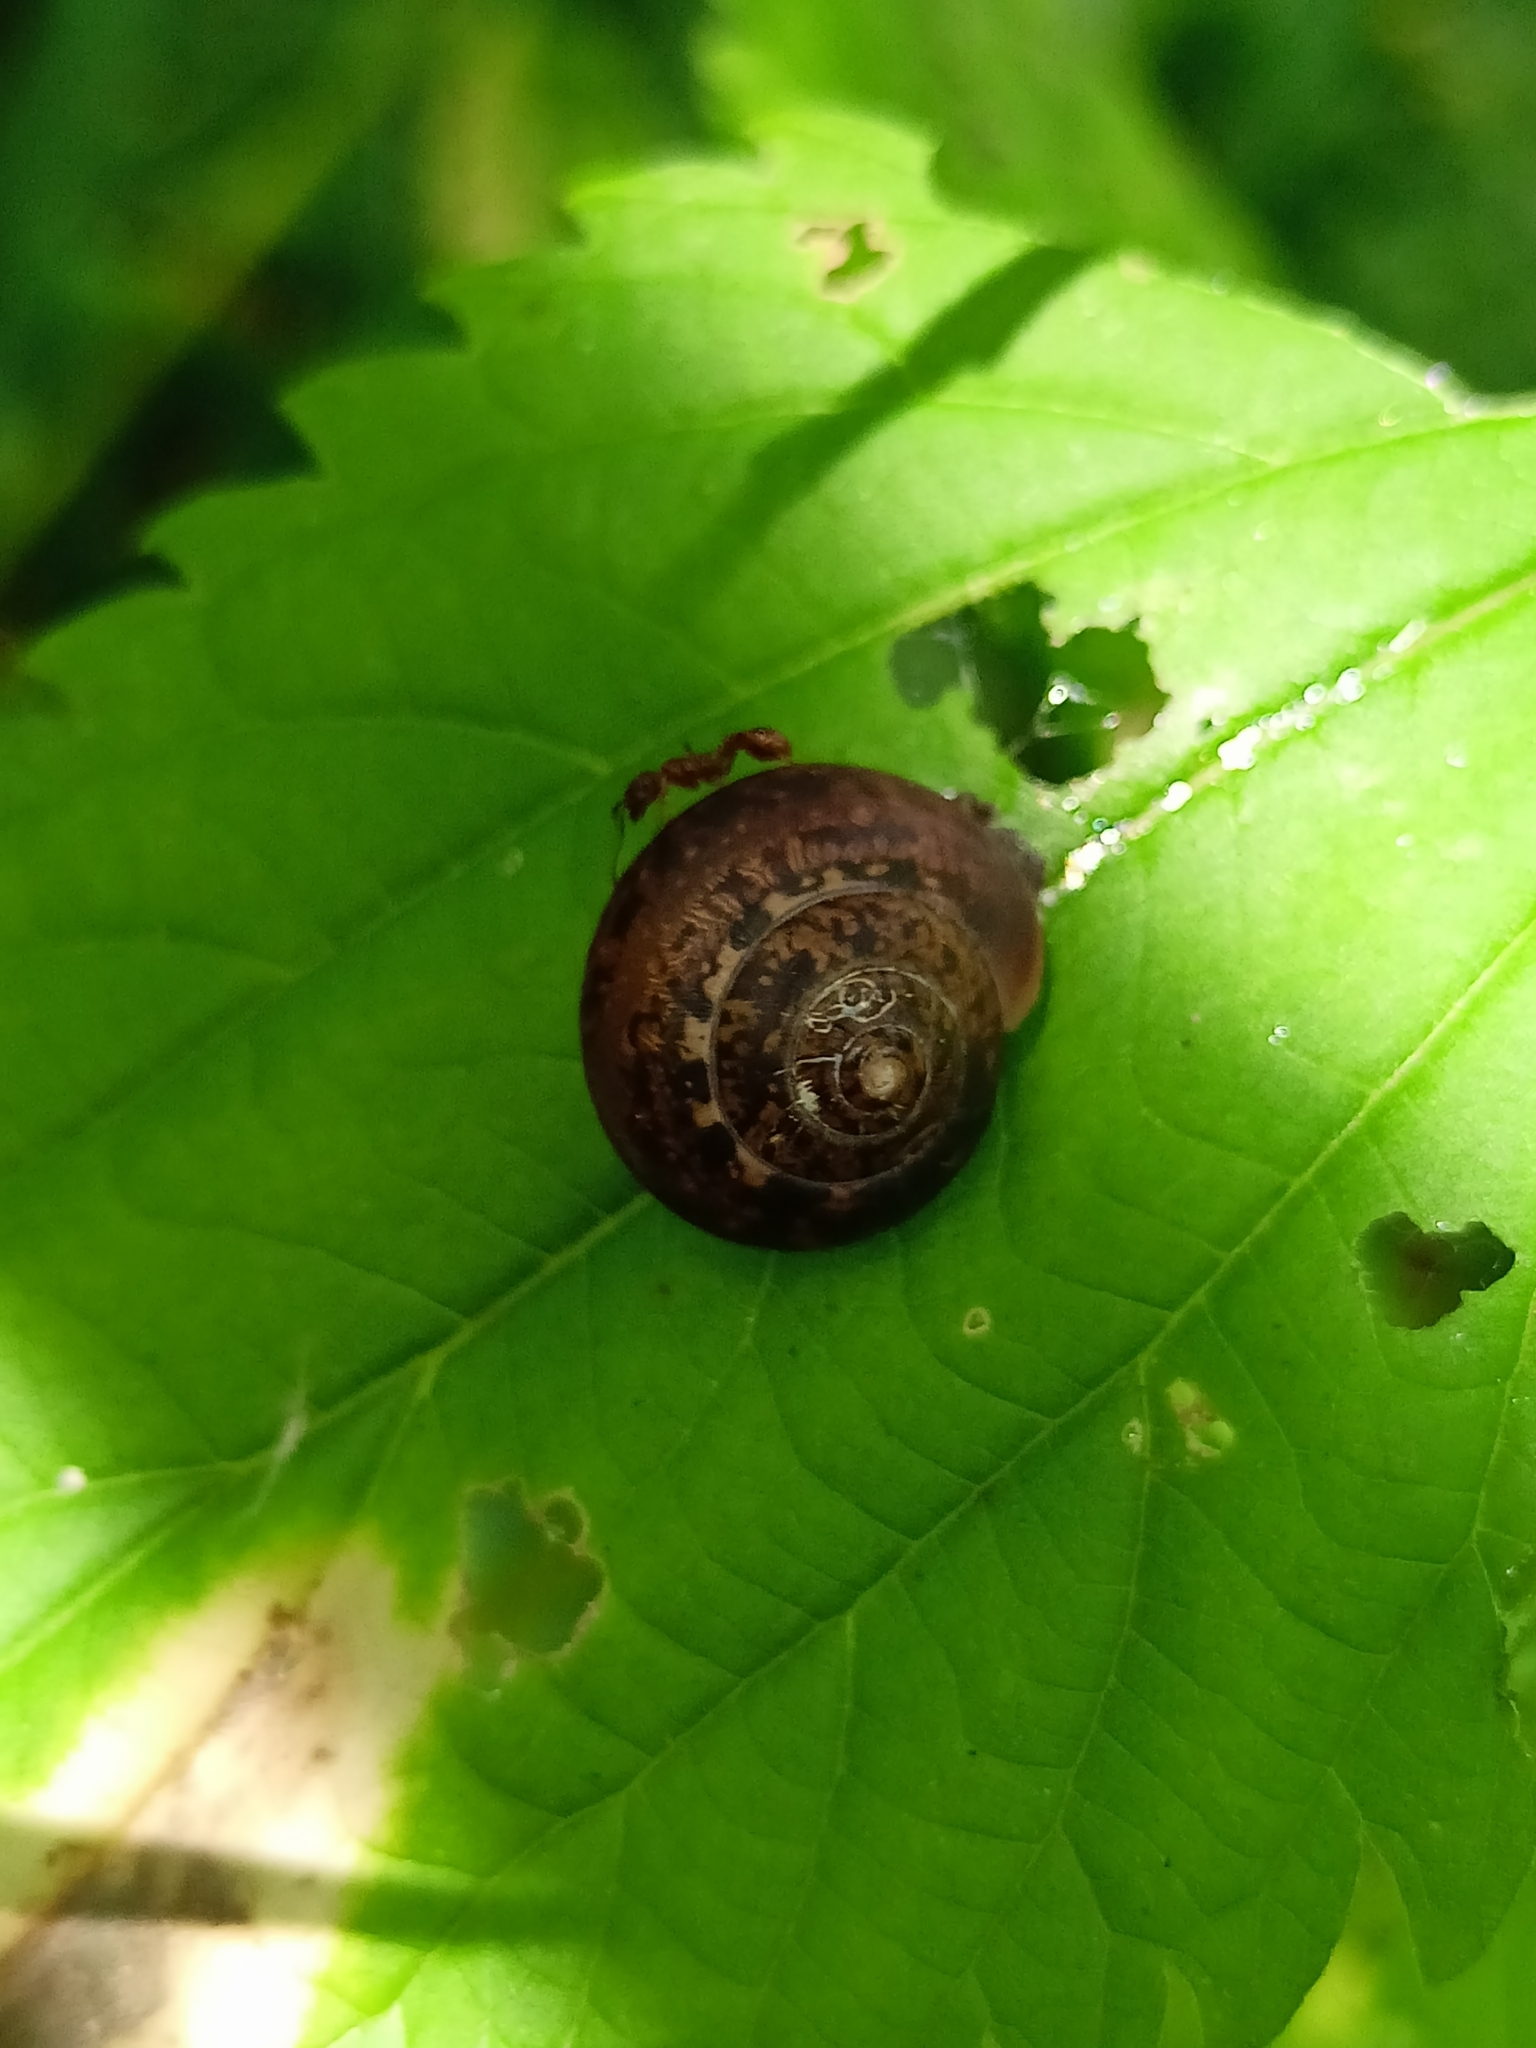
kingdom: Animalia
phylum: Mollusca
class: Gastropoda
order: Stylommatophora
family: Camaenidae
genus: Fruticicola
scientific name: Fruticicola fruticum
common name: Bush snail
